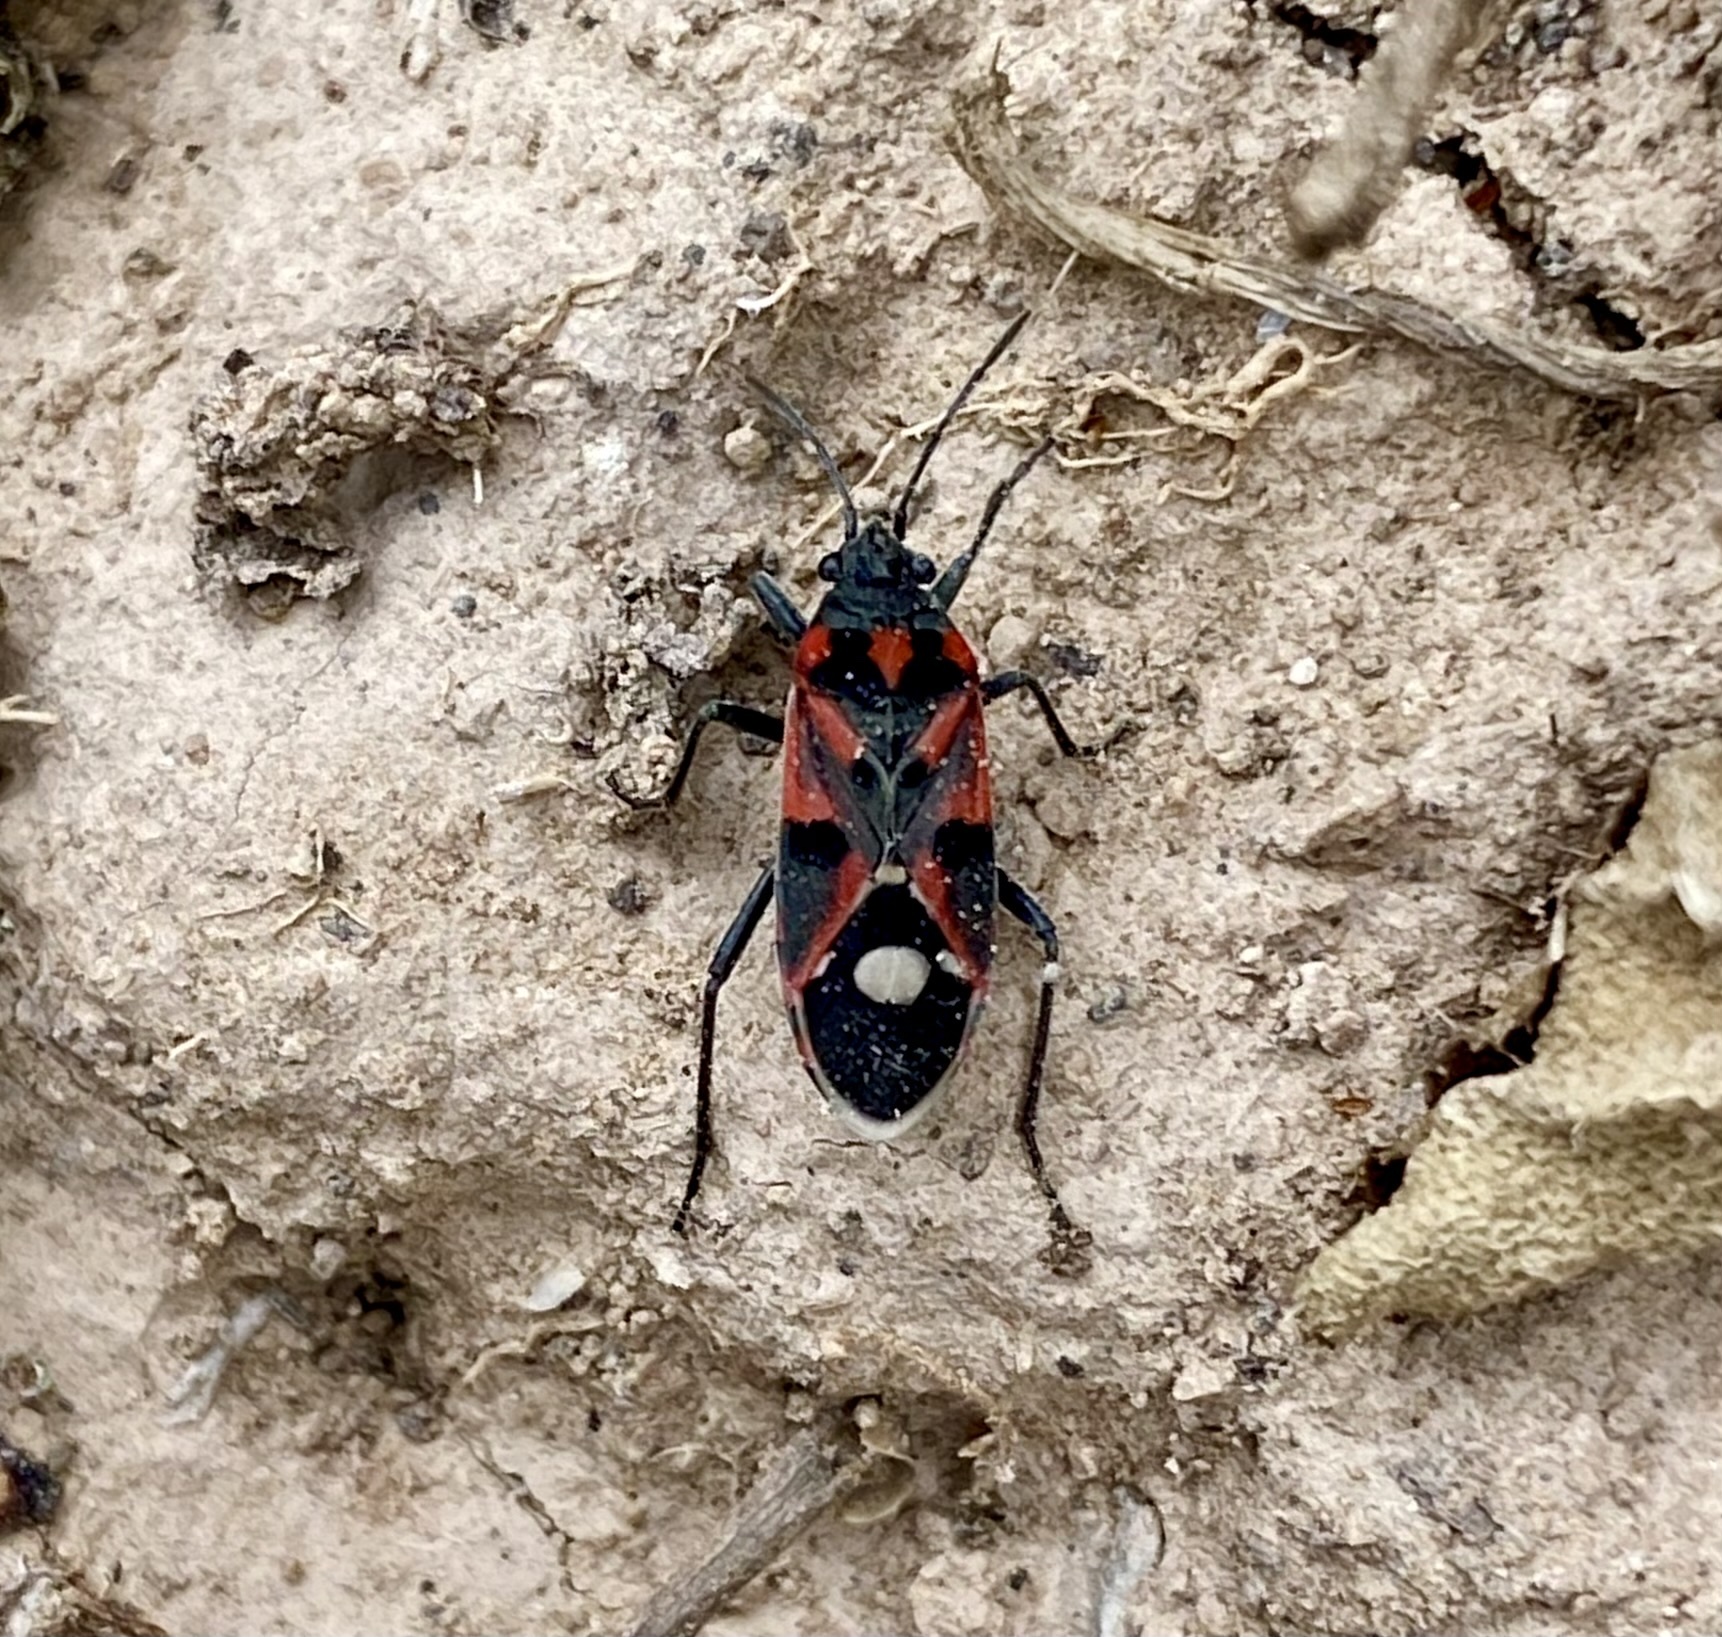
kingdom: Animalia
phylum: Arthropoda
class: Insecta
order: Hemiptera
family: Lygaeidae
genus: Lygaeus
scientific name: Lygaeus alboornatus
